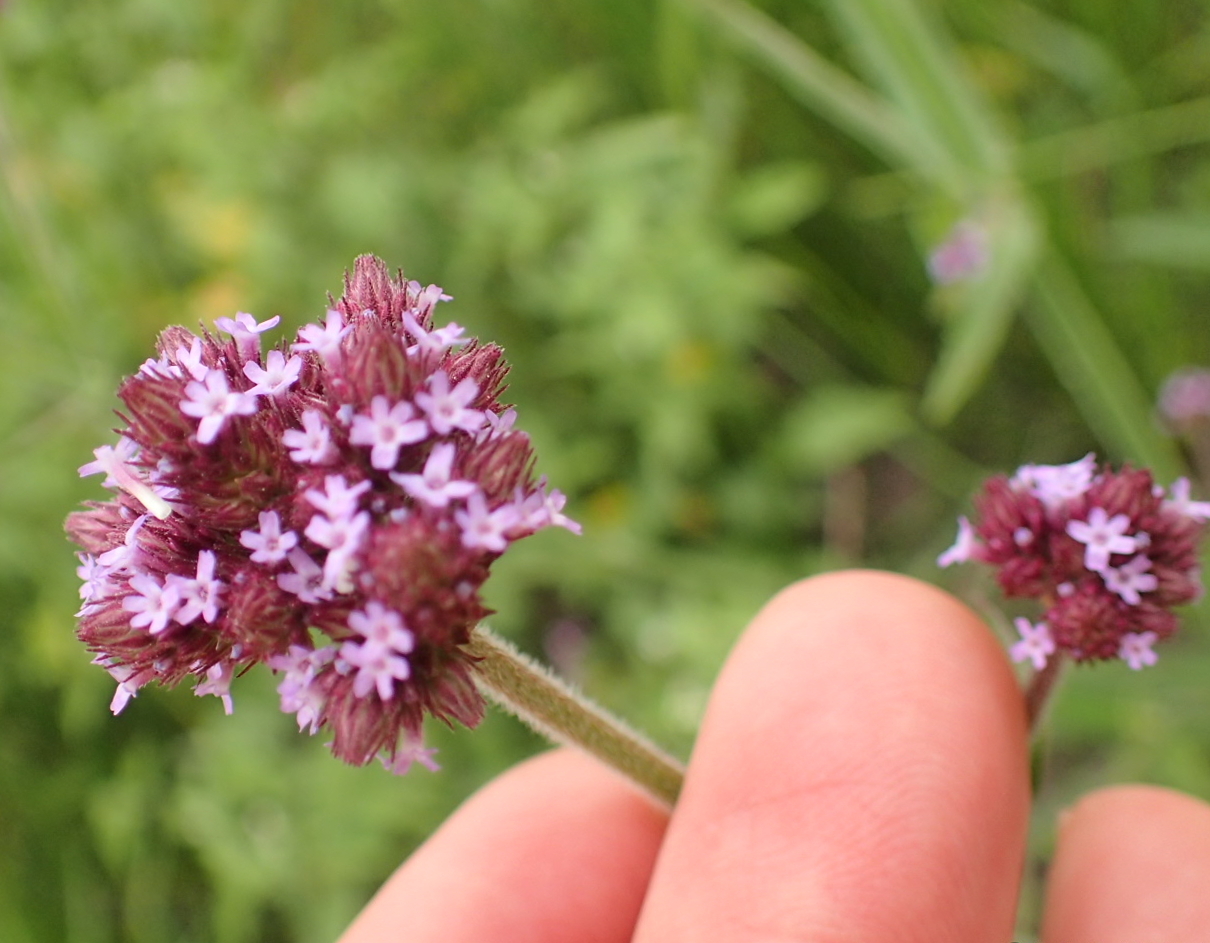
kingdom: Plantae
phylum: Tracheophyta
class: Magnoliopsida
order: Lamiales
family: Verbenaceae
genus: Verbena
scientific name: Verbena bonariensis
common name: Purpletop vervain
